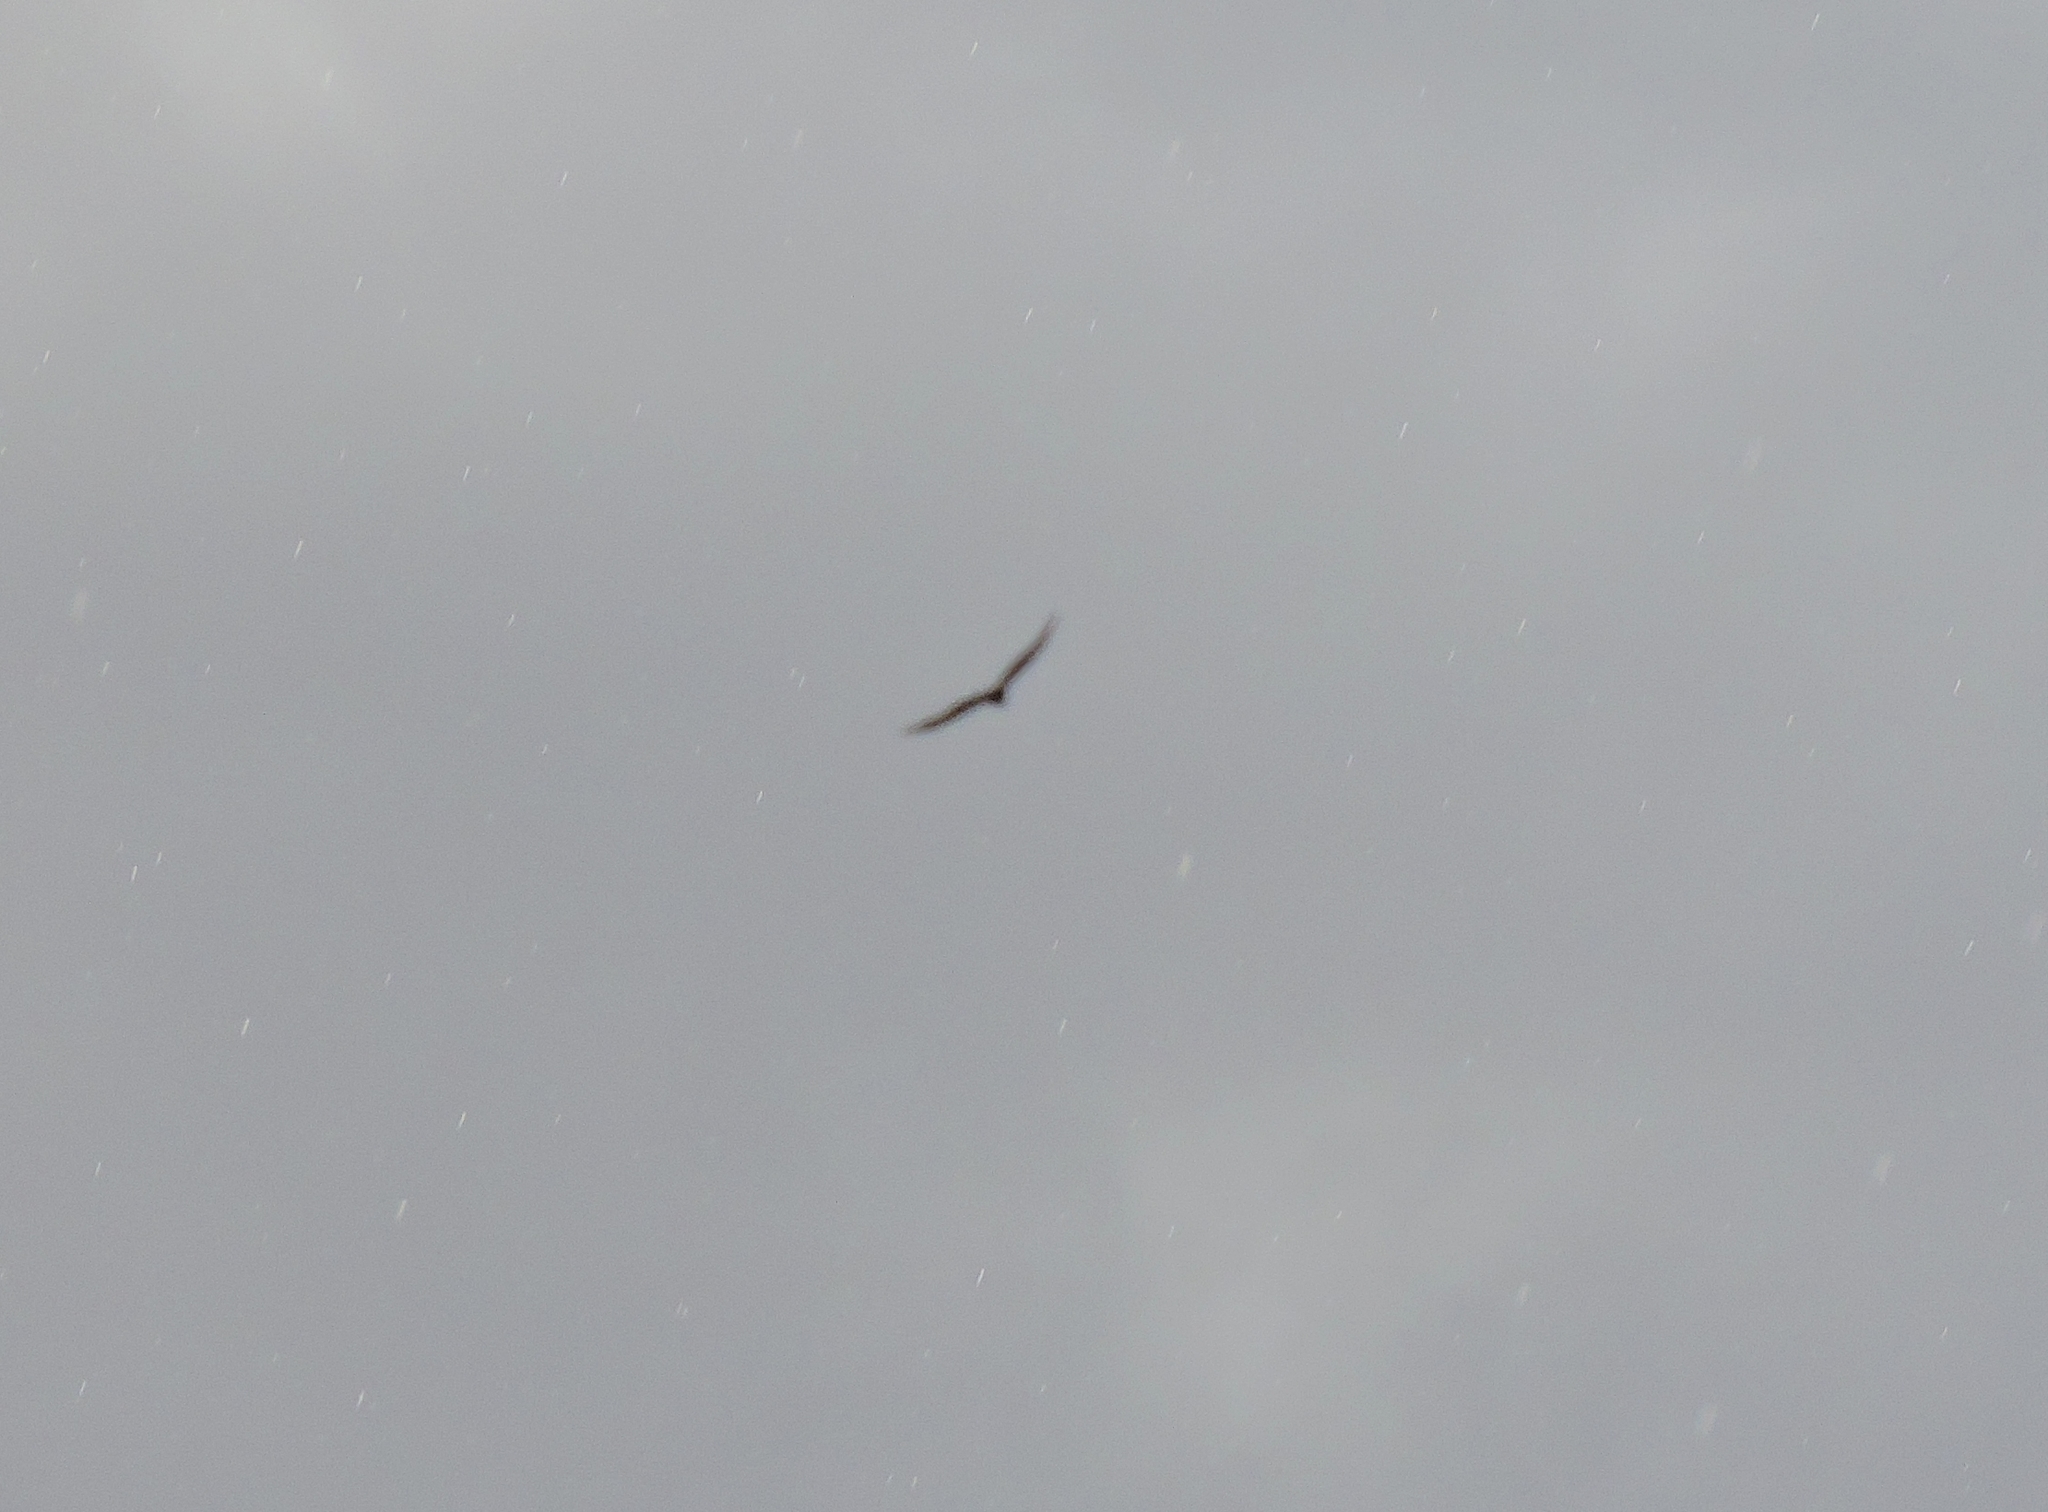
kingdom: Animalia
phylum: Chordata
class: Aves
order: Accipitriformes
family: Accipitridae
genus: Buteo
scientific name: Buteo buteo
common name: Common buzzard
